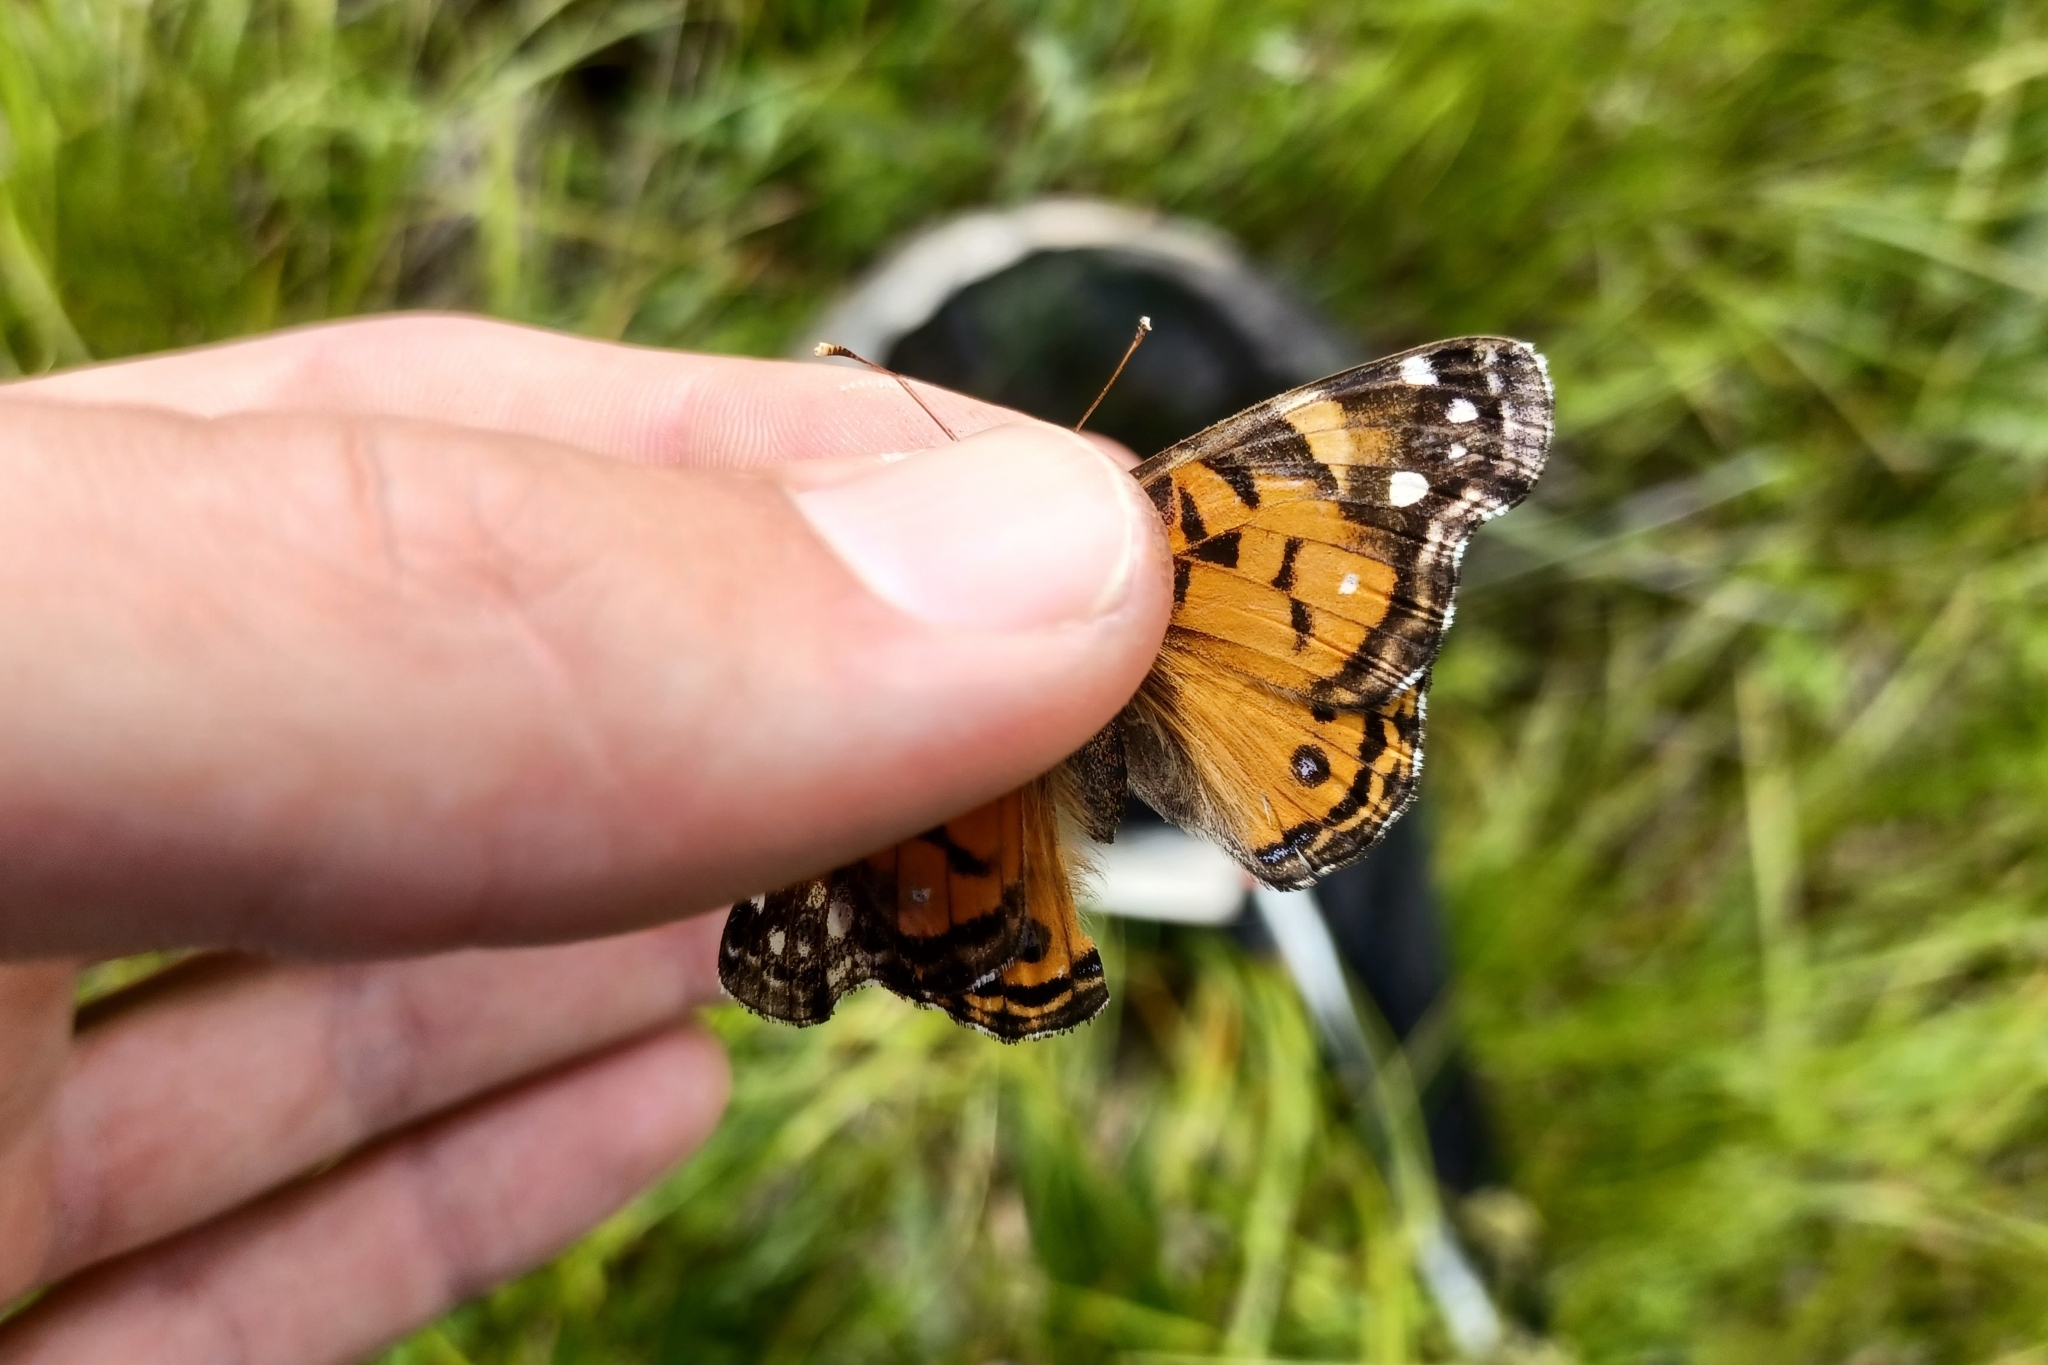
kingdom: Animalia
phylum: Arthropoda
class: Insecta
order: Lepidoptera
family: Nymphalidae
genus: Vanessa
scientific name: Vanessa virginiensis
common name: American lady
